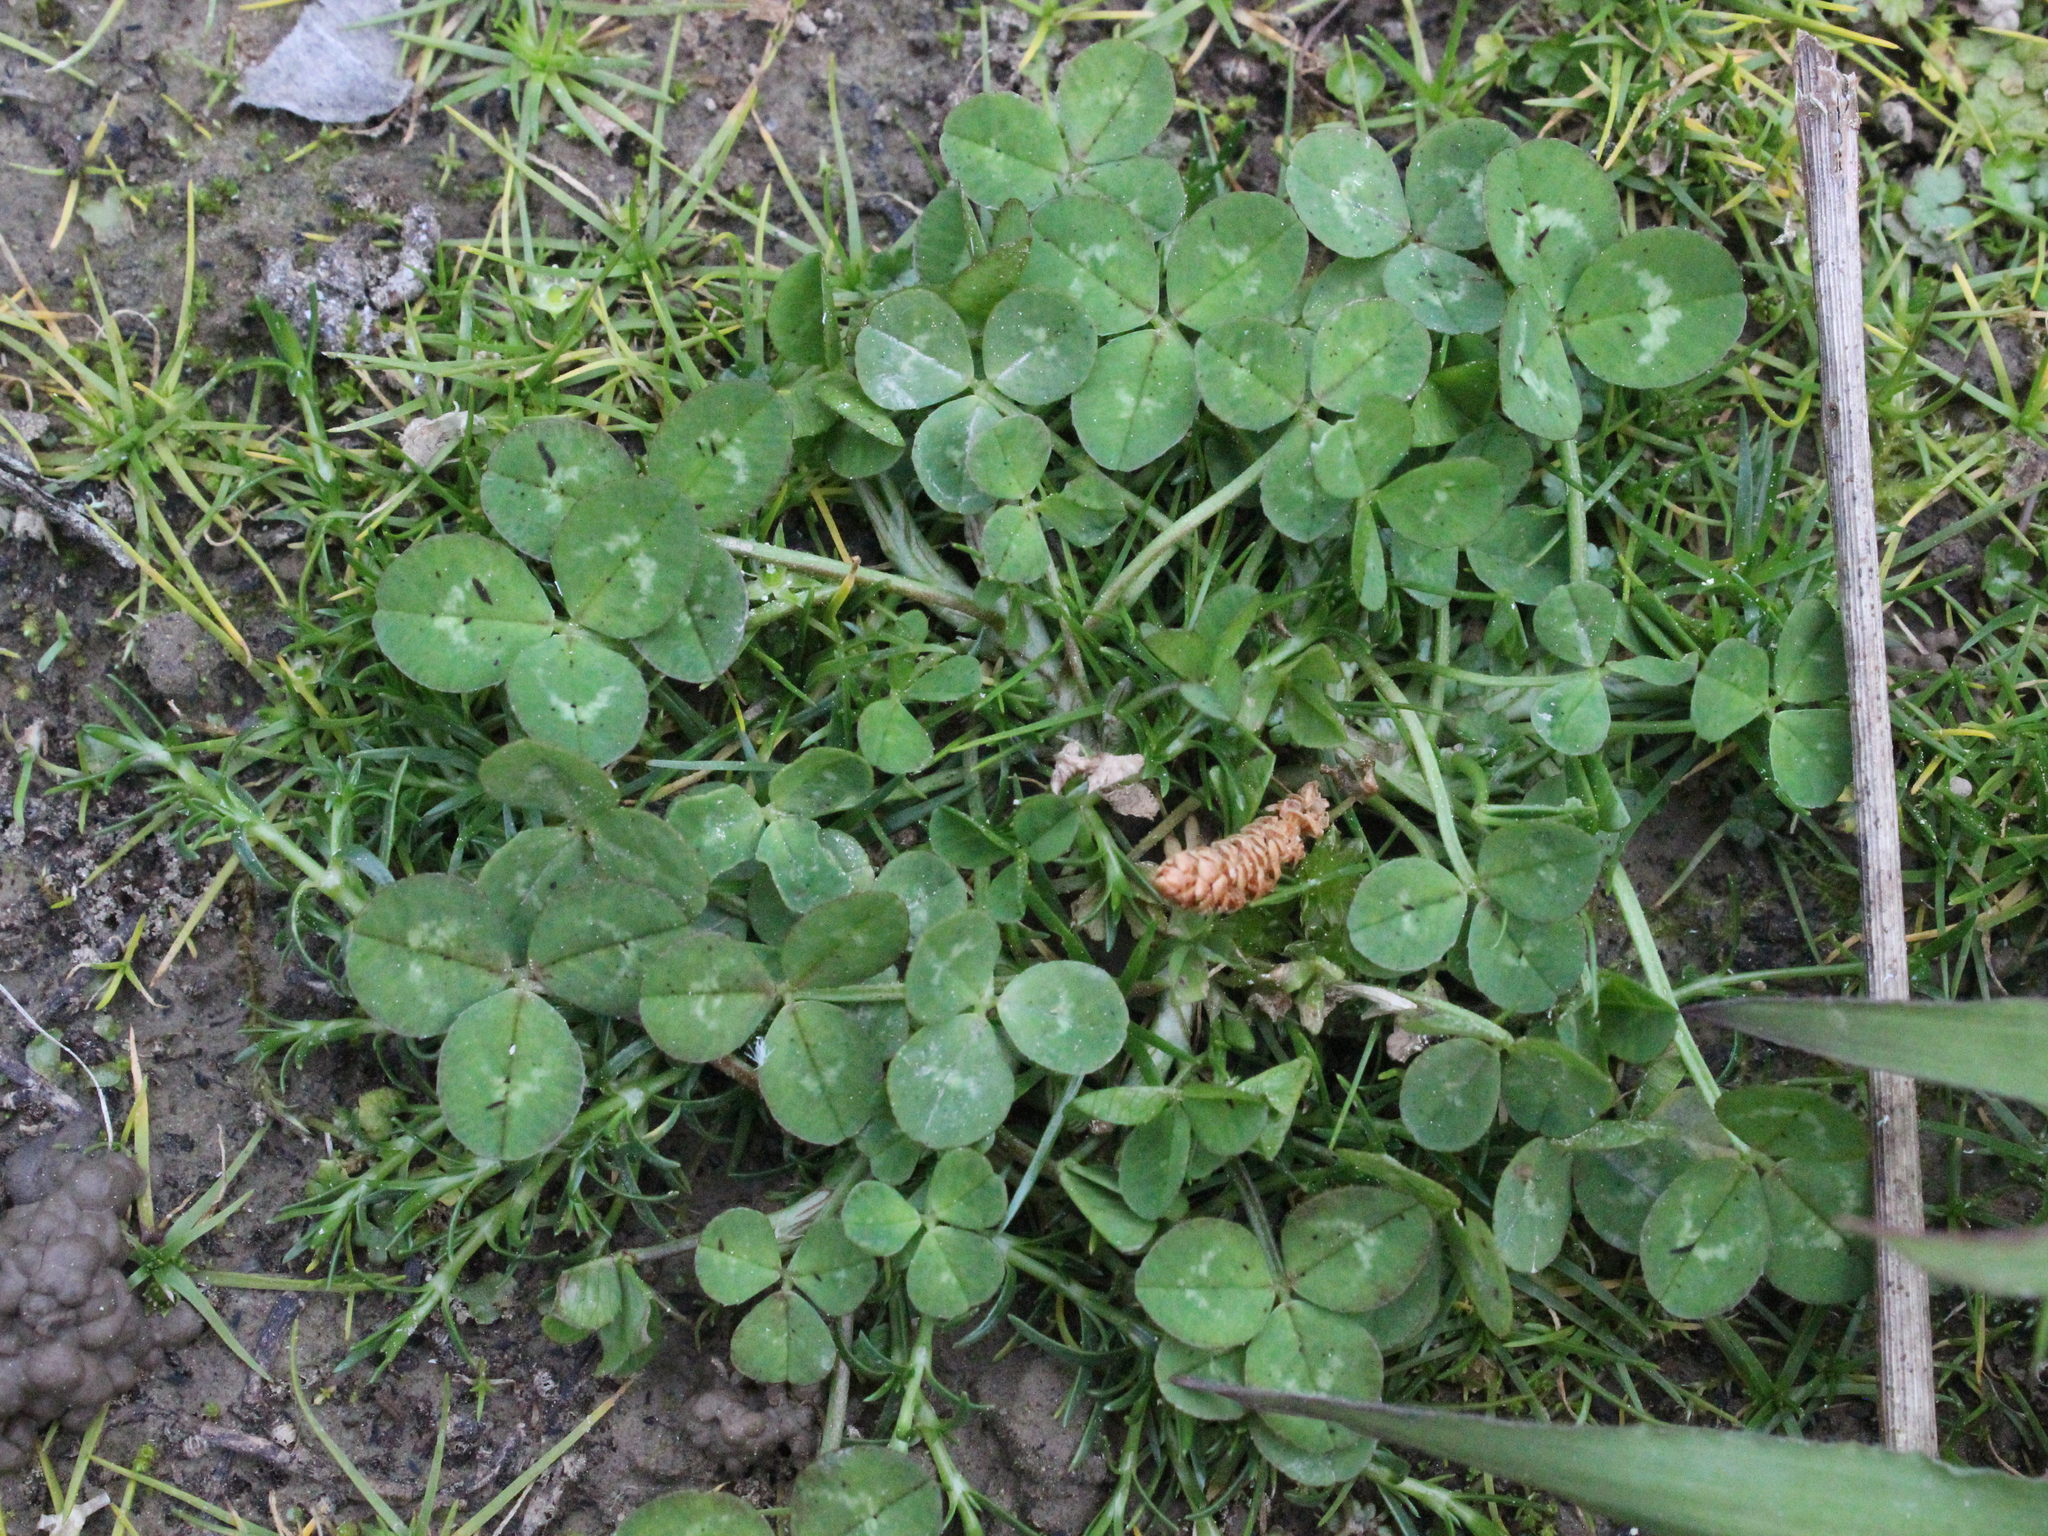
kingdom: Plantae
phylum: Tracheophyta
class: Magnoliopsida
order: Fabales
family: Fabaceae
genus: Trifolium
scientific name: Trifolium repens
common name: White clover
